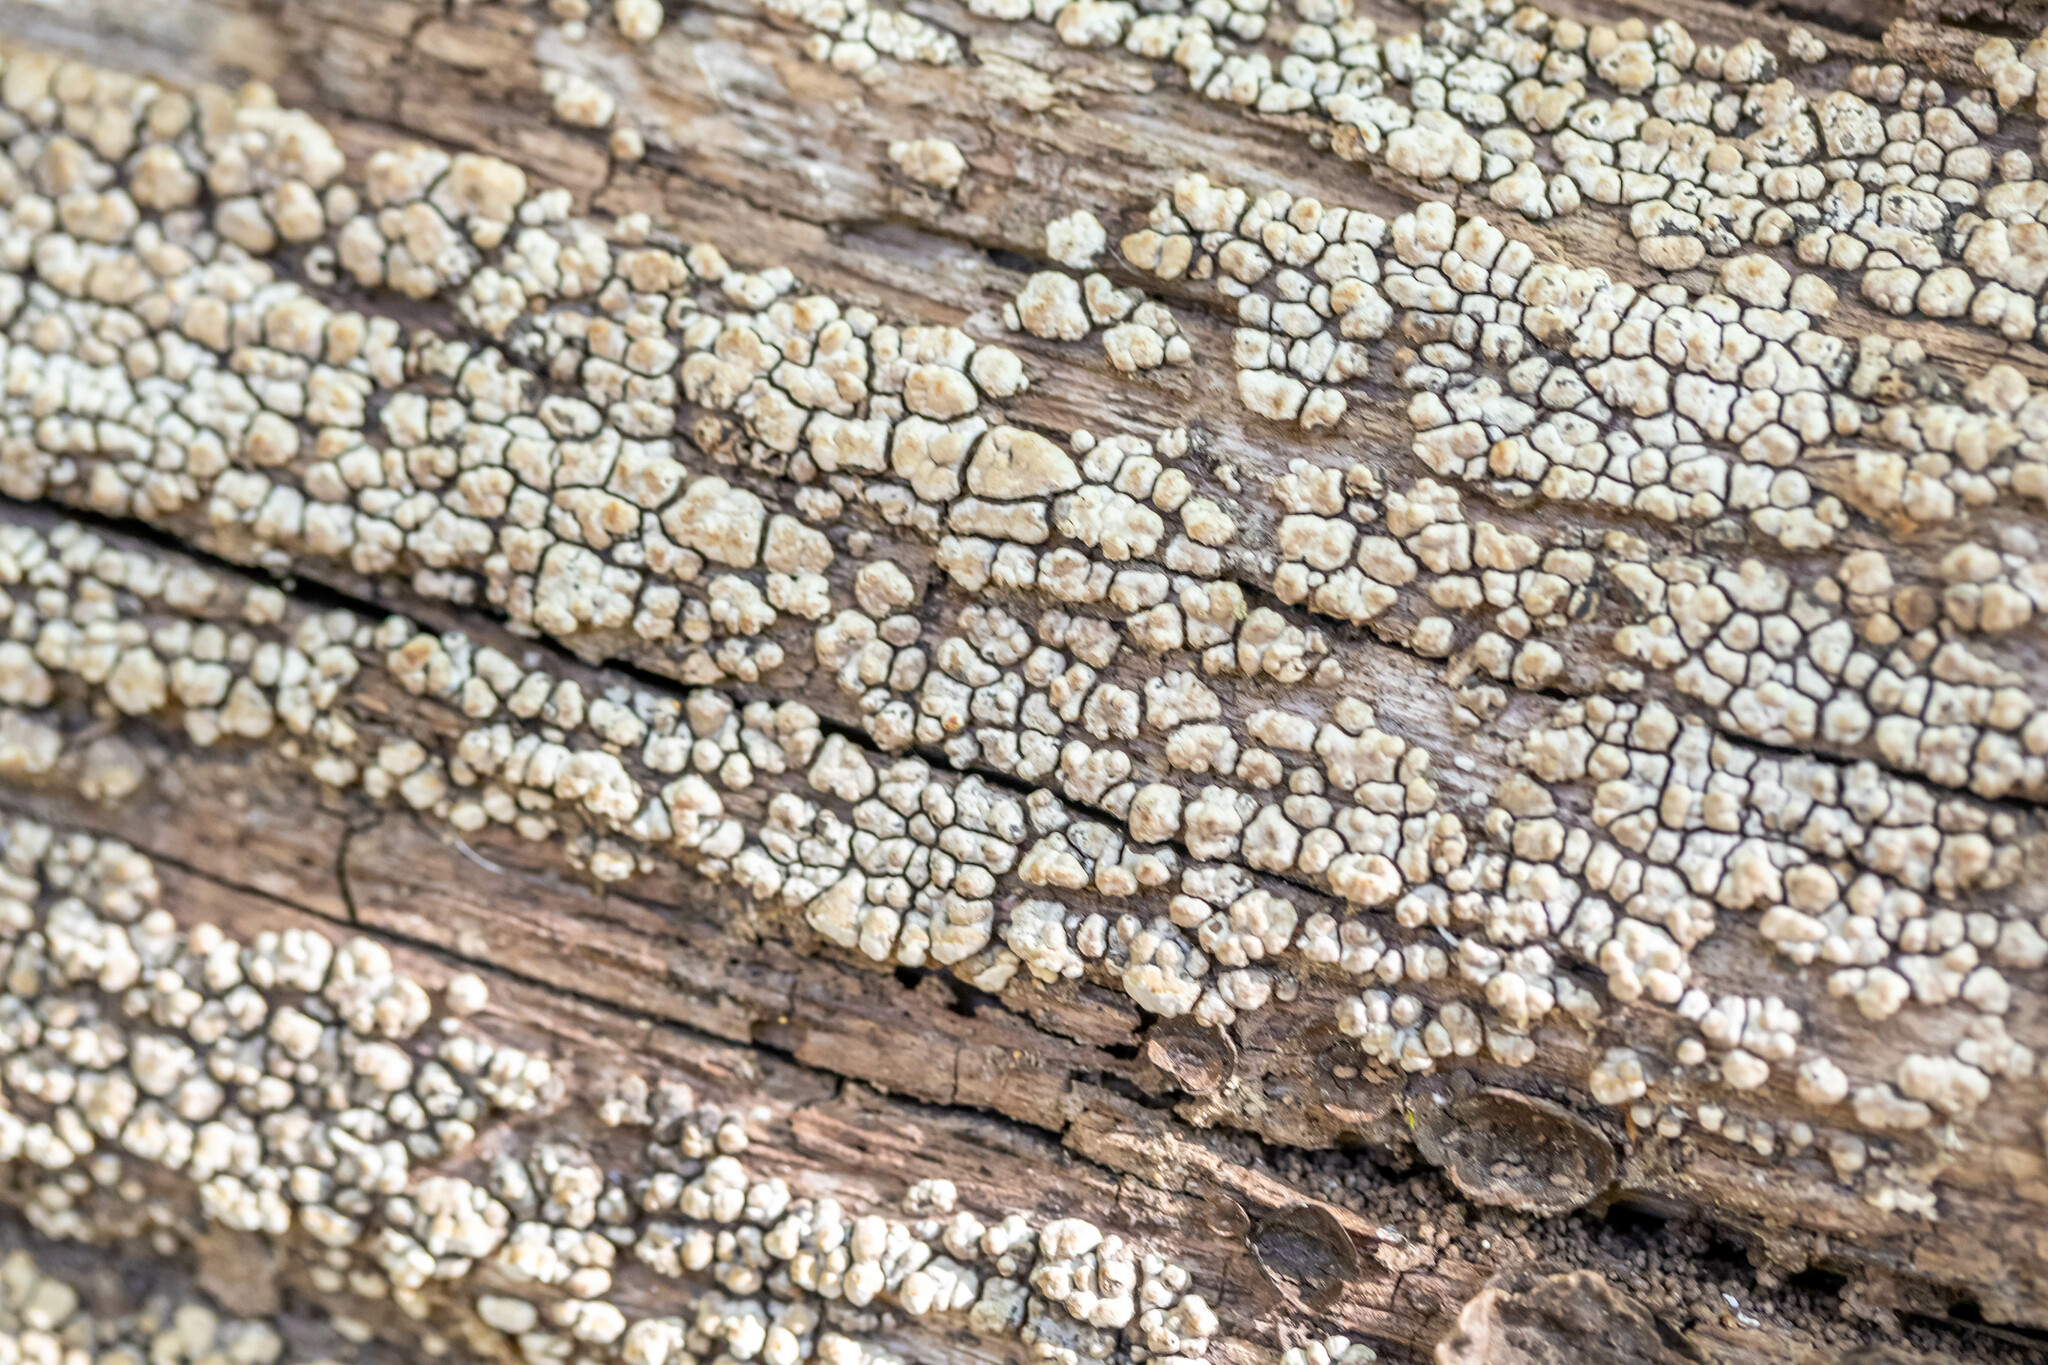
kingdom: Fungi
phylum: Basidiomycota
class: Agaricomycetes
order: Russulales
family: Stereaceae
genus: Xylobolus
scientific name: Xylobolus frustulatus
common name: Ceramic parchment
